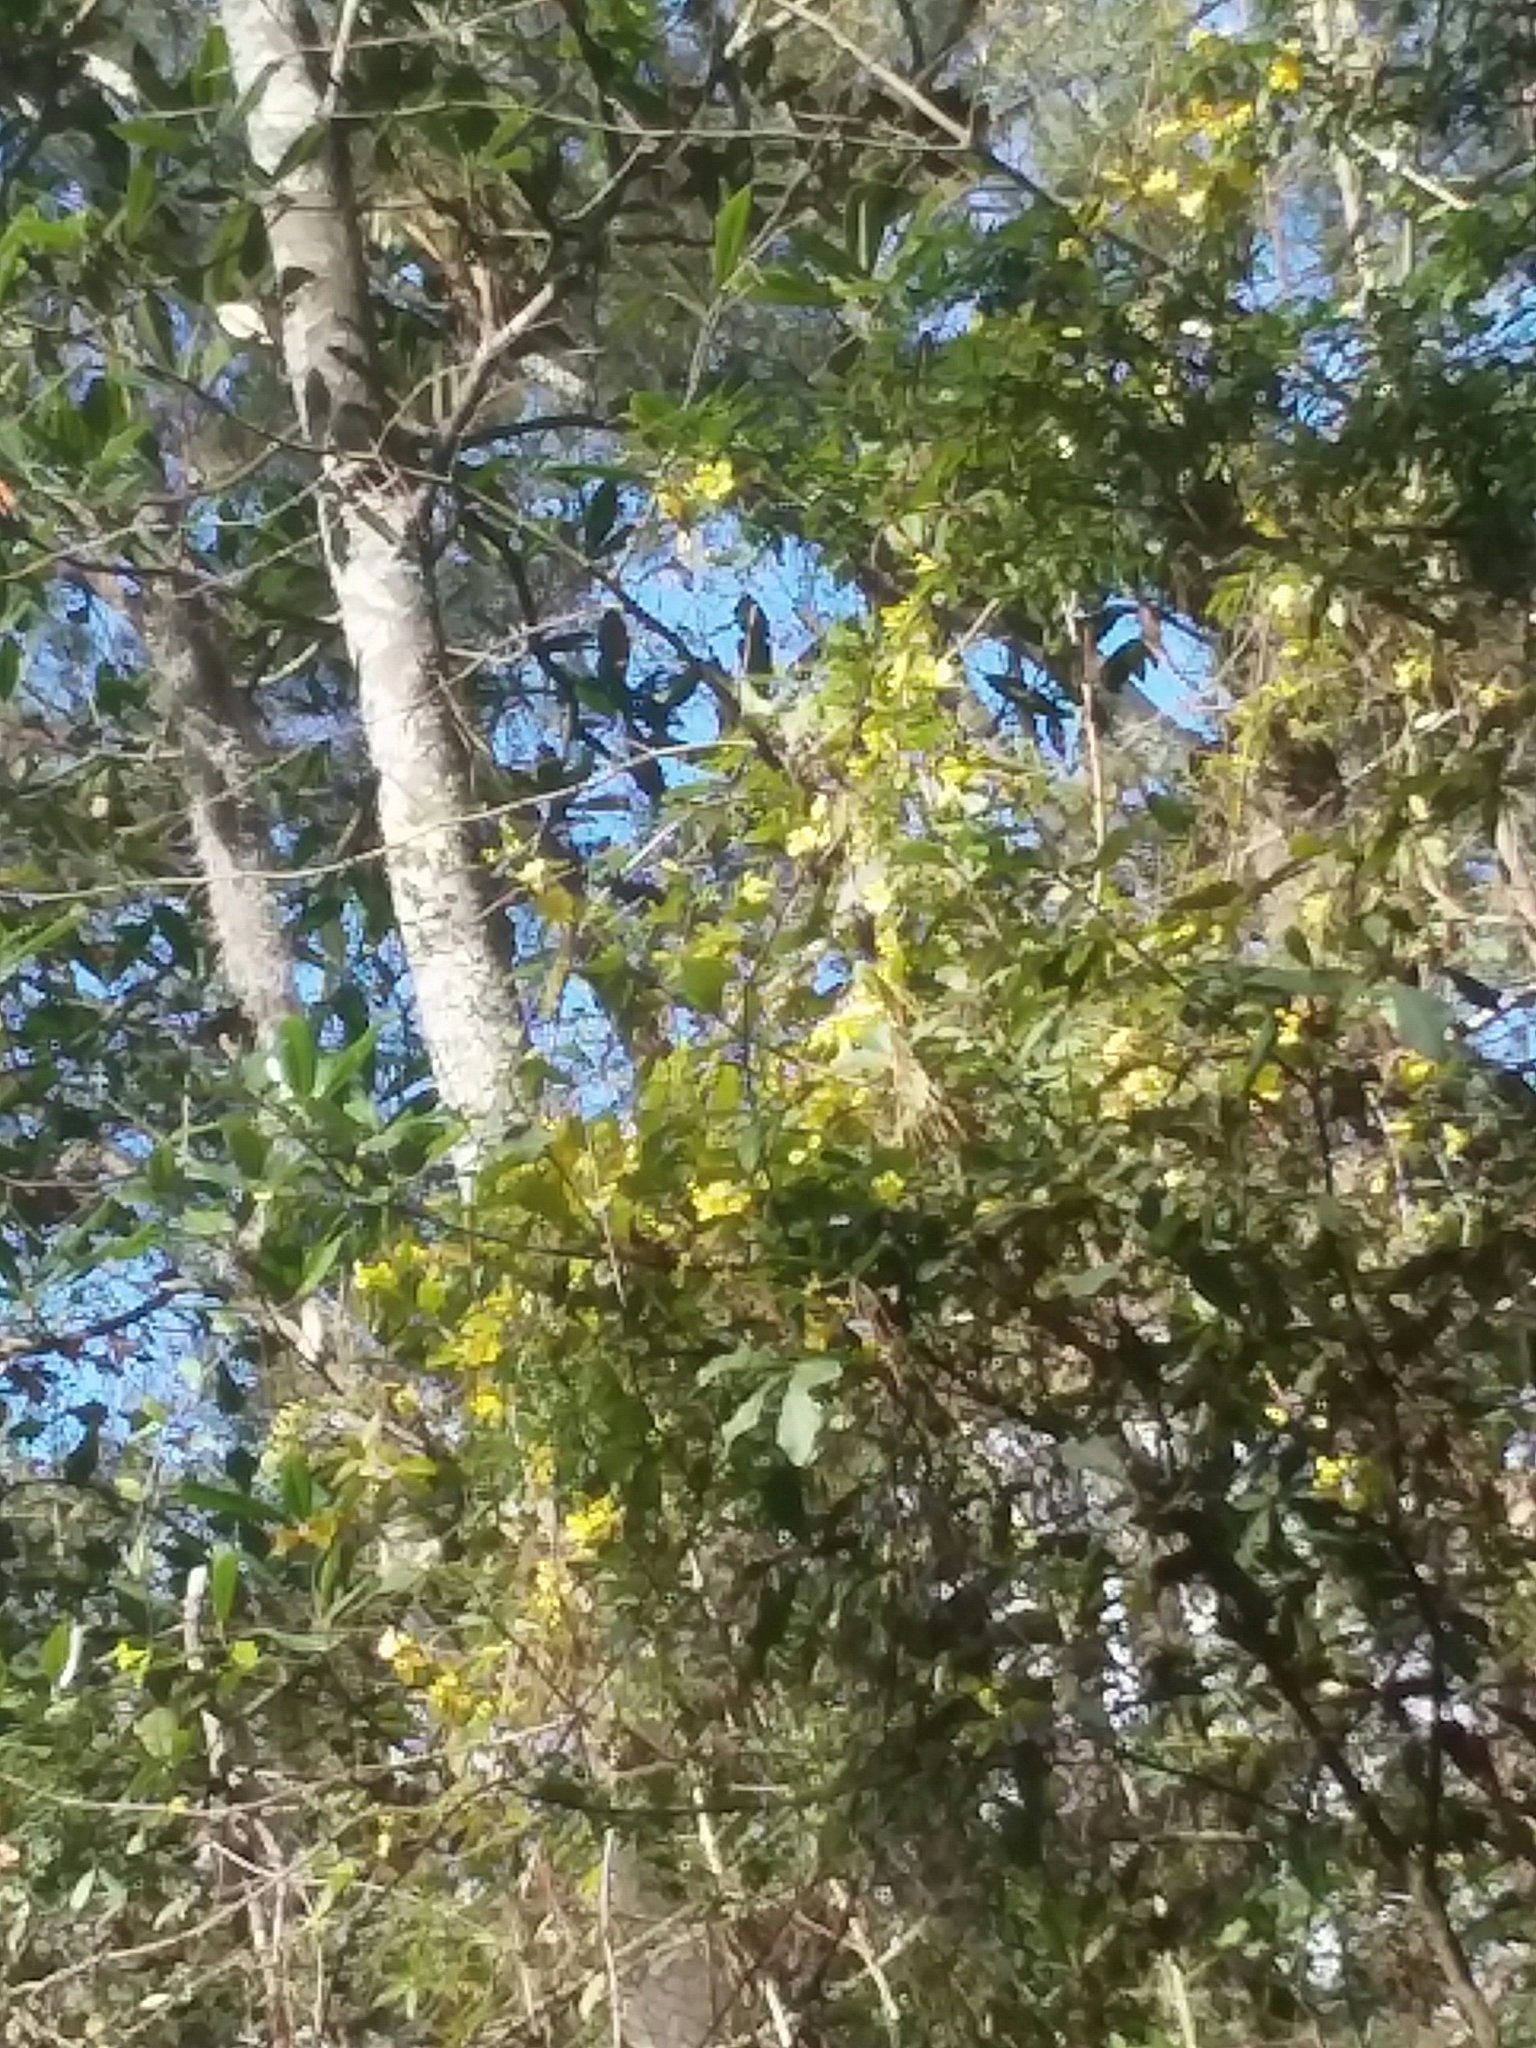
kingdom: Plantae
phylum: Tracheophyta
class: Magnoliopsida
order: Gentianales
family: Gelsemiaceae
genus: Gelsemium
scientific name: Gelsemium sempervirens
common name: Carolina-jasmine
